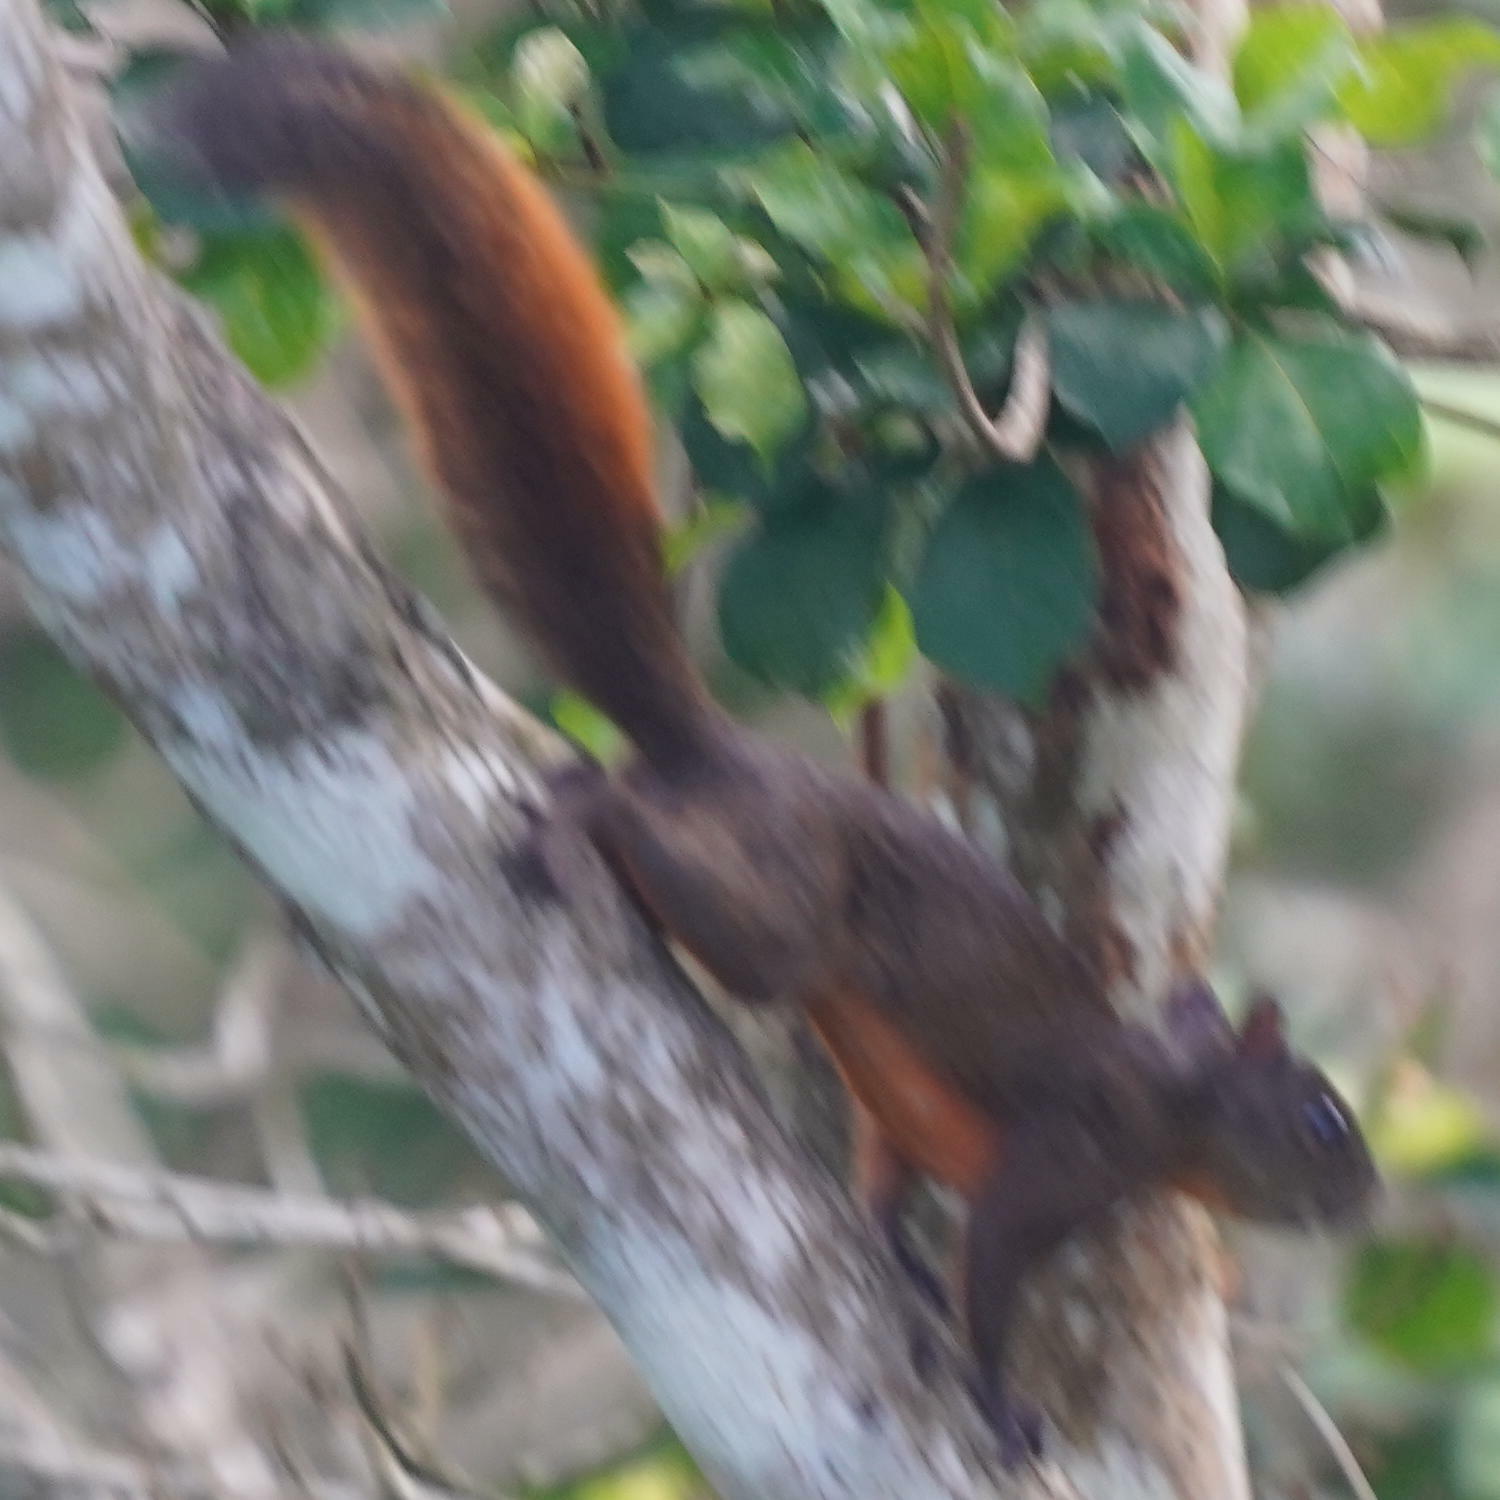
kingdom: Animalia
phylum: Chordata
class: Mammalia
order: Rodentia
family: Sciuridae
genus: Sciurus
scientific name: Sciurus granatensis
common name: Red-tailed squirrel
